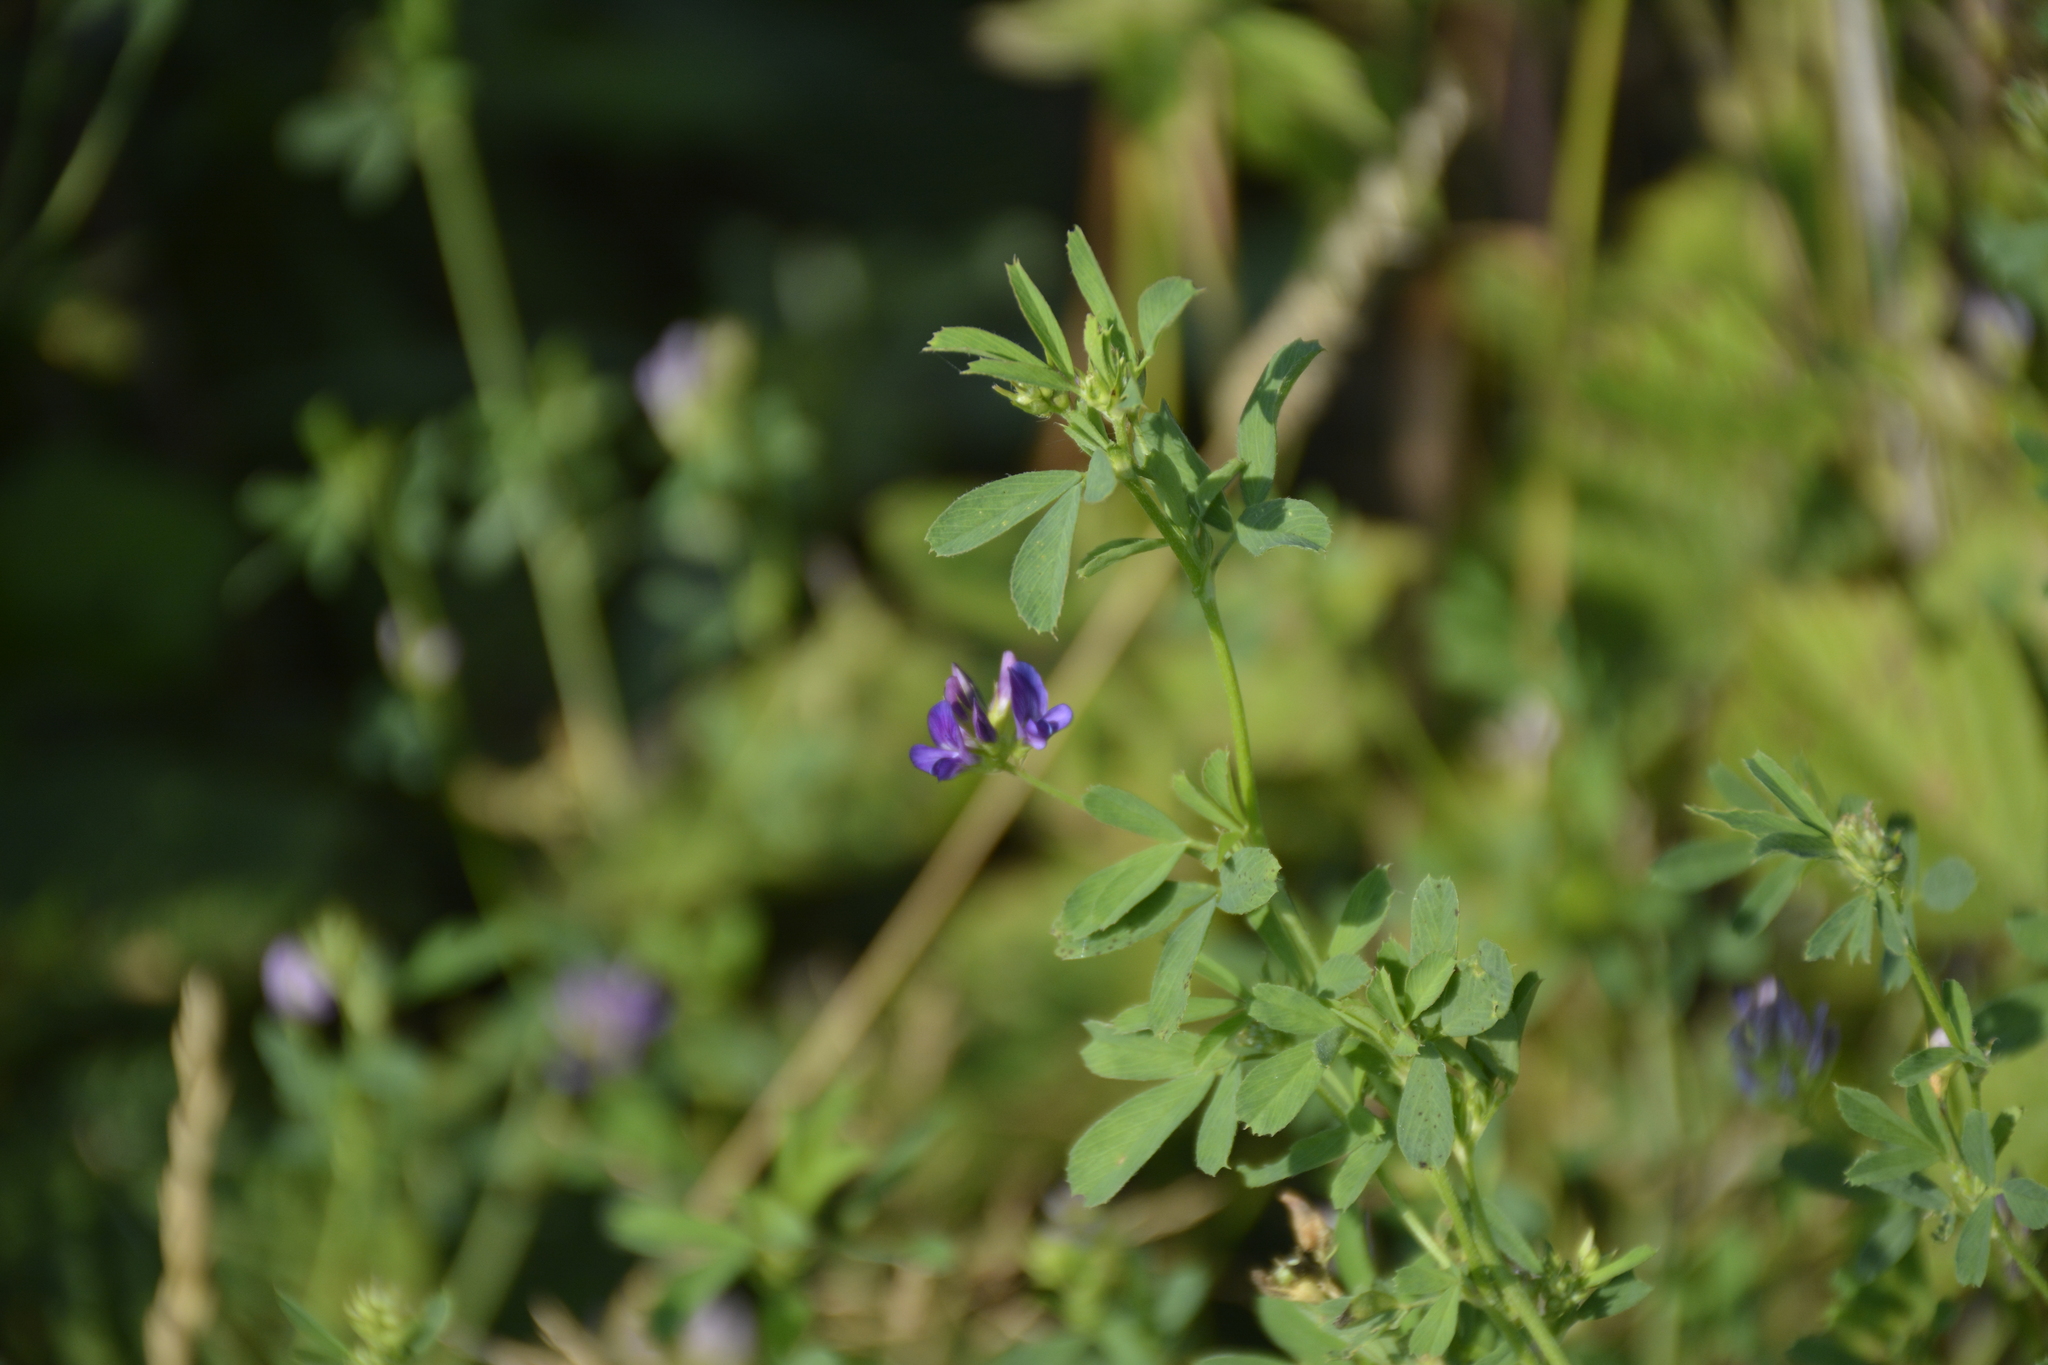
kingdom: Plantae
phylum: Tracheophyta
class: Magnoliopsida
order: Fabales
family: Fabaceae
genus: Medicago
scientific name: Medicago sativa
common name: Alfalfa
